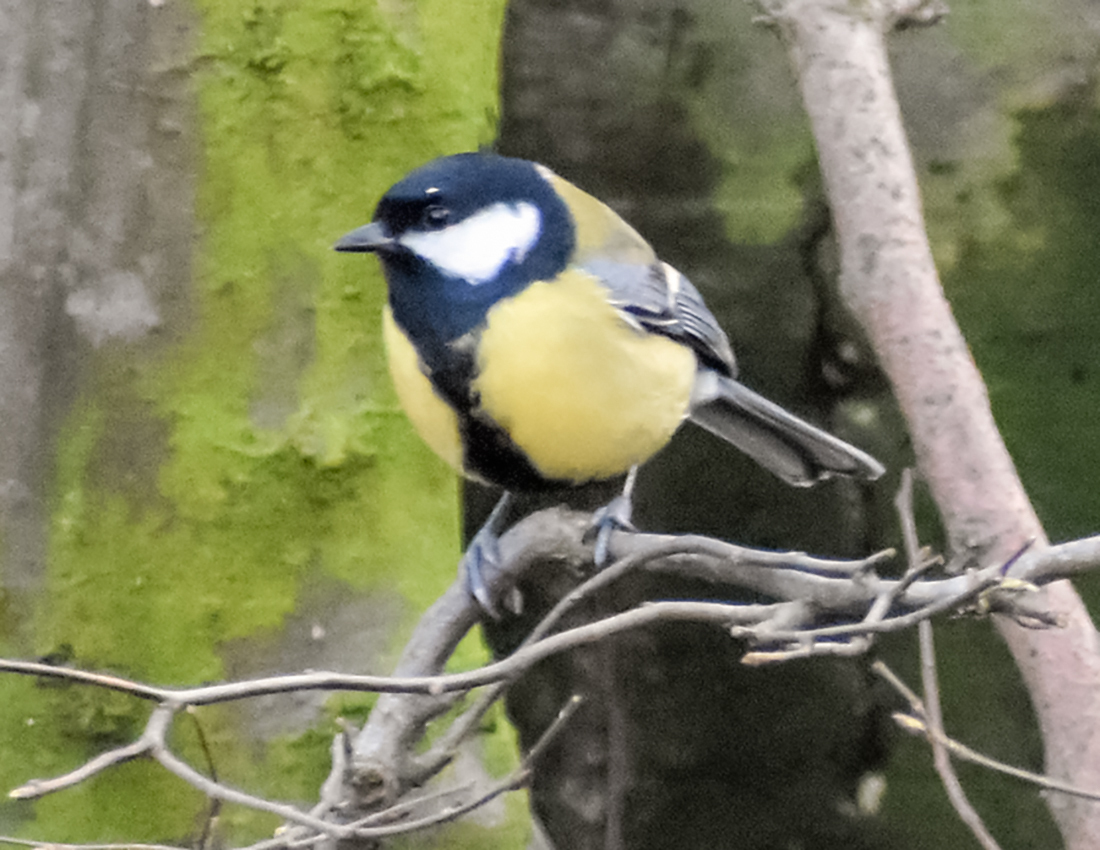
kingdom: Animalia
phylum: Chordata
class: Aves
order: Passeriformes
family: Paridae
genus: Parus
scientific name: Parus major
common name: Great tit
